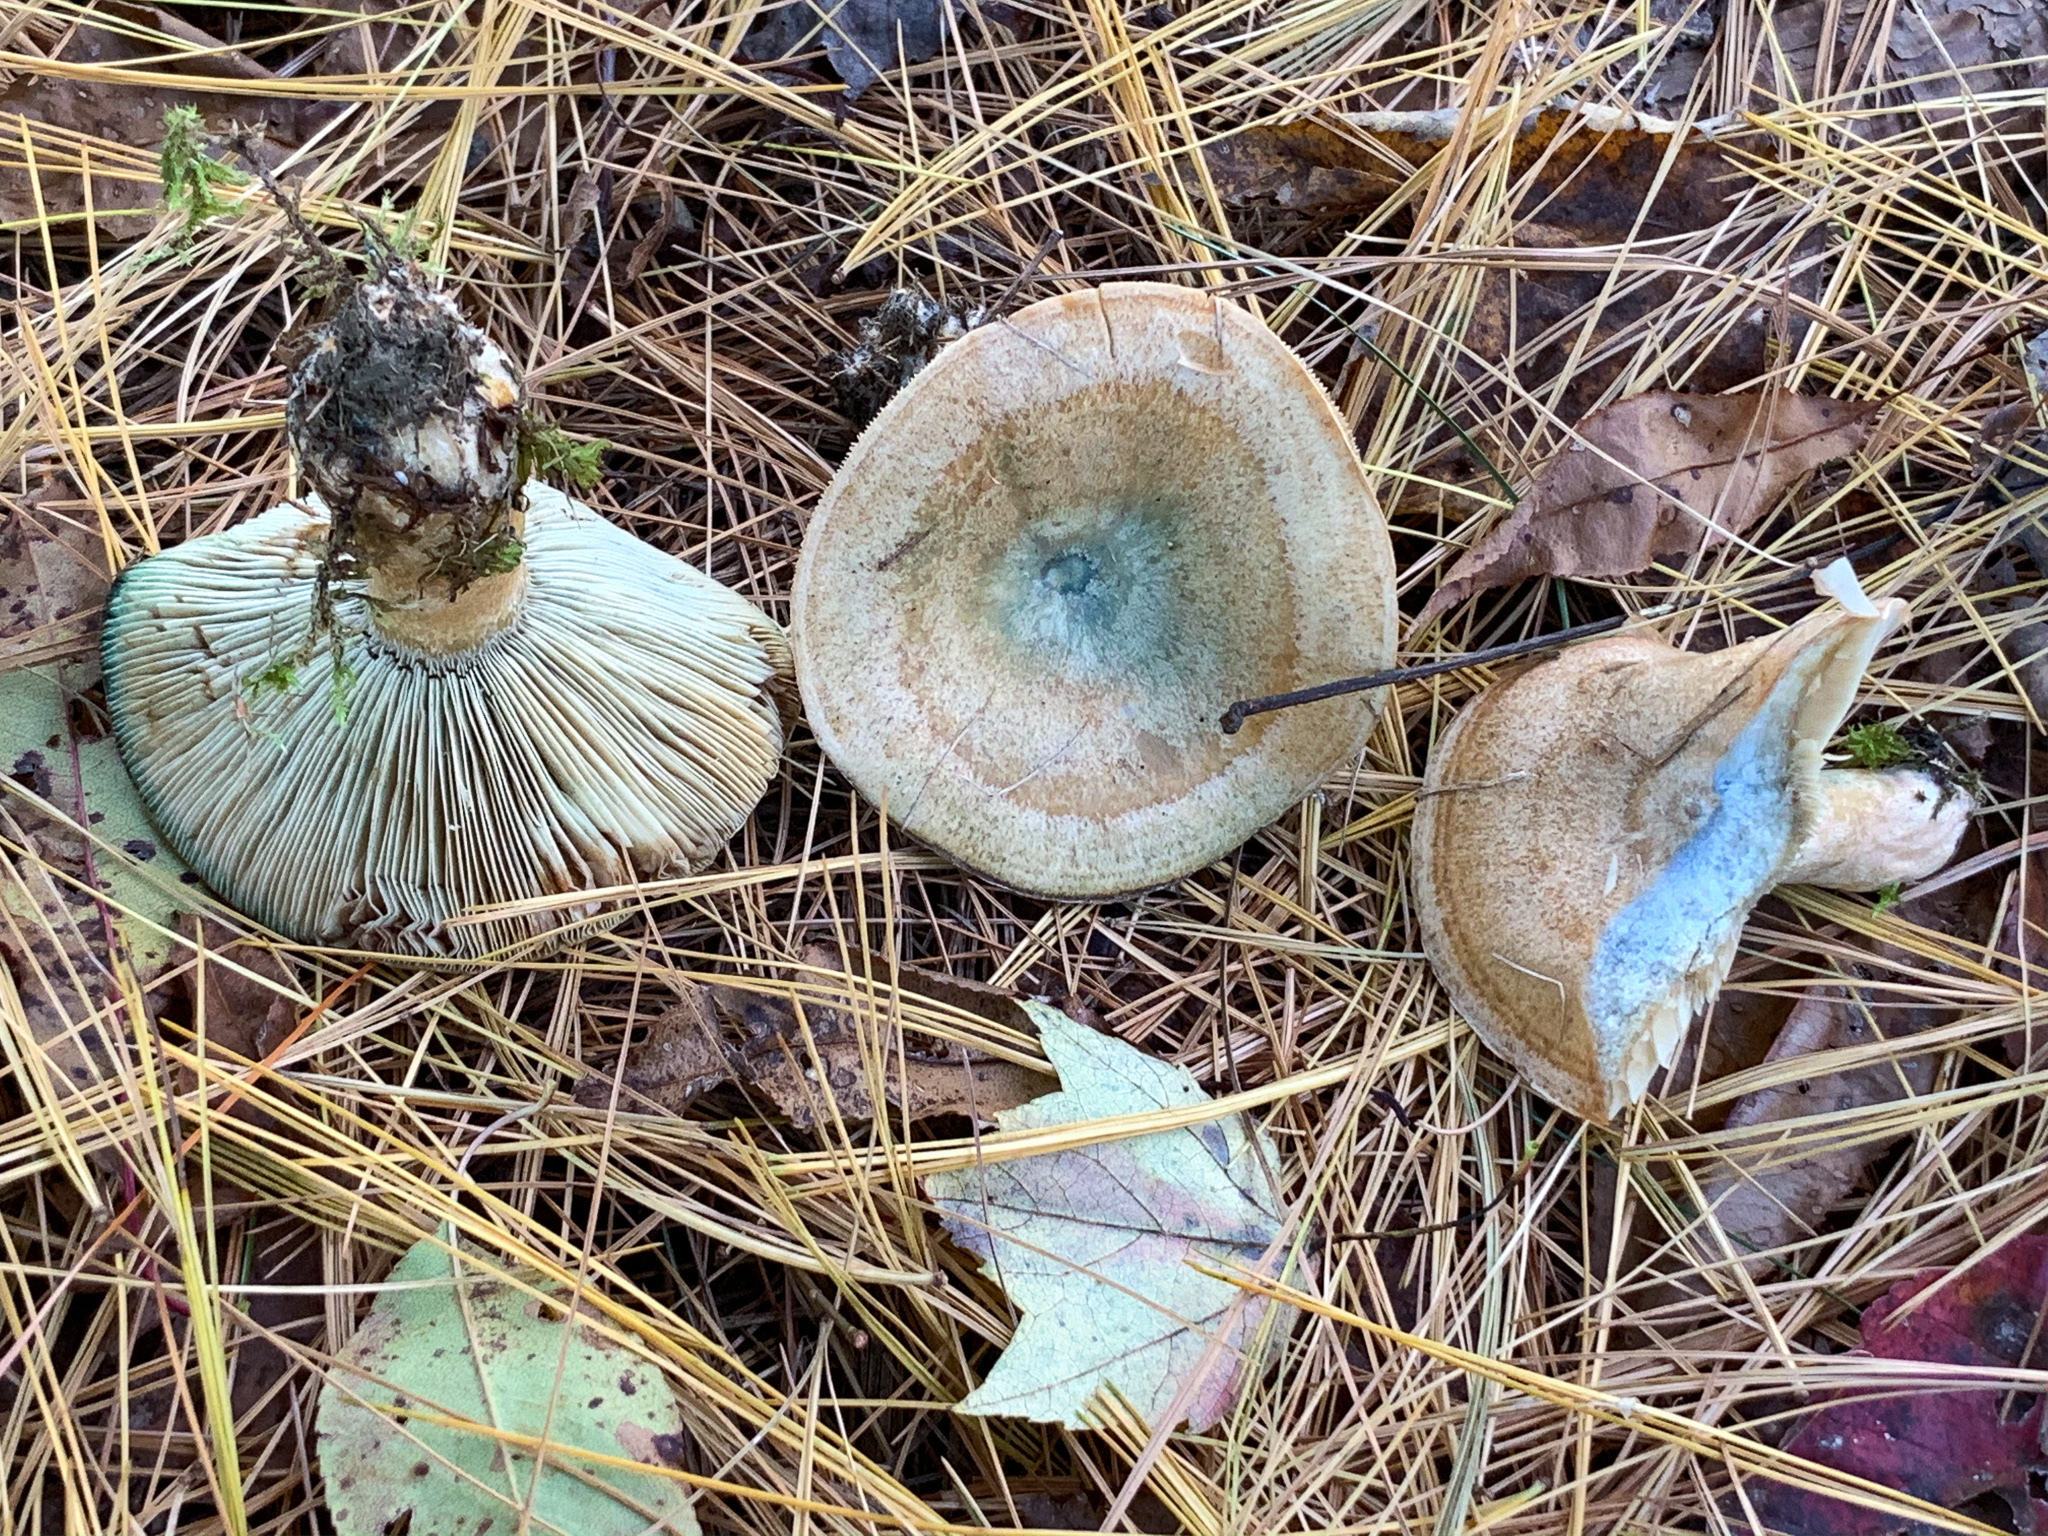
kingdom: Fungi
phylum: Basidiomycota
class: Agaricomycetes
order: Russulales
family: Russulaceae
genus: Lactarius
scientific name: Lactarius chelidonium
